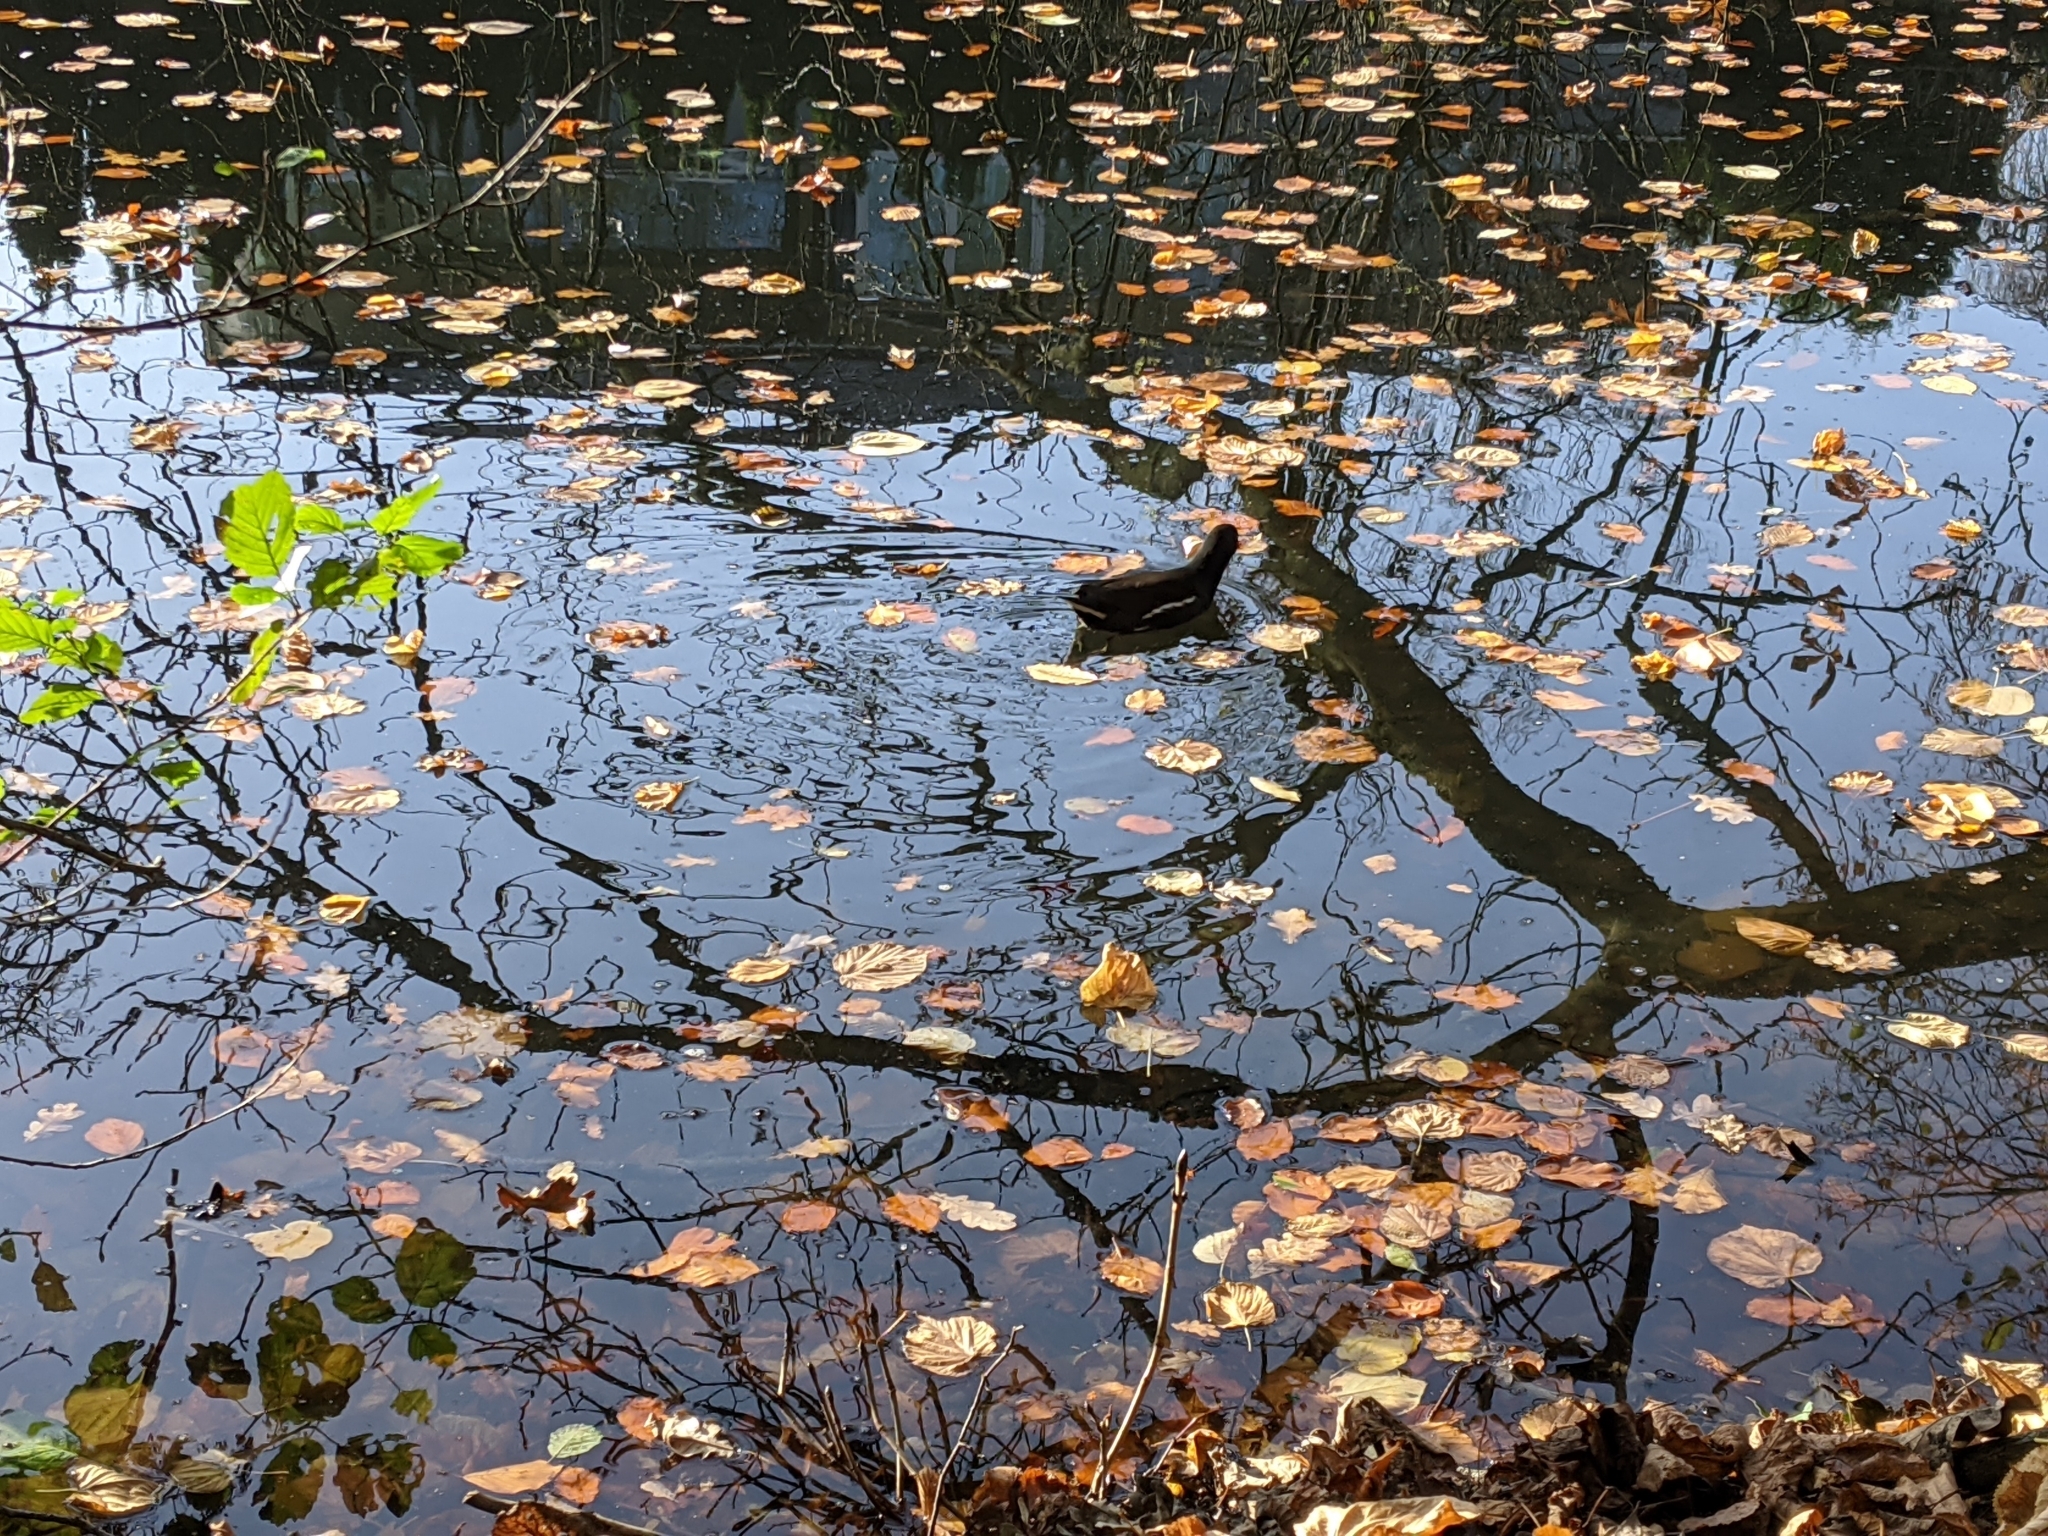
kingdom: Animalia
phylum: Chordata
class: Aves
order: Gruiformes
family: Rallidae
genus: Gallinula
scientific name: Gallinula chloropus
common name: Common moorhen
